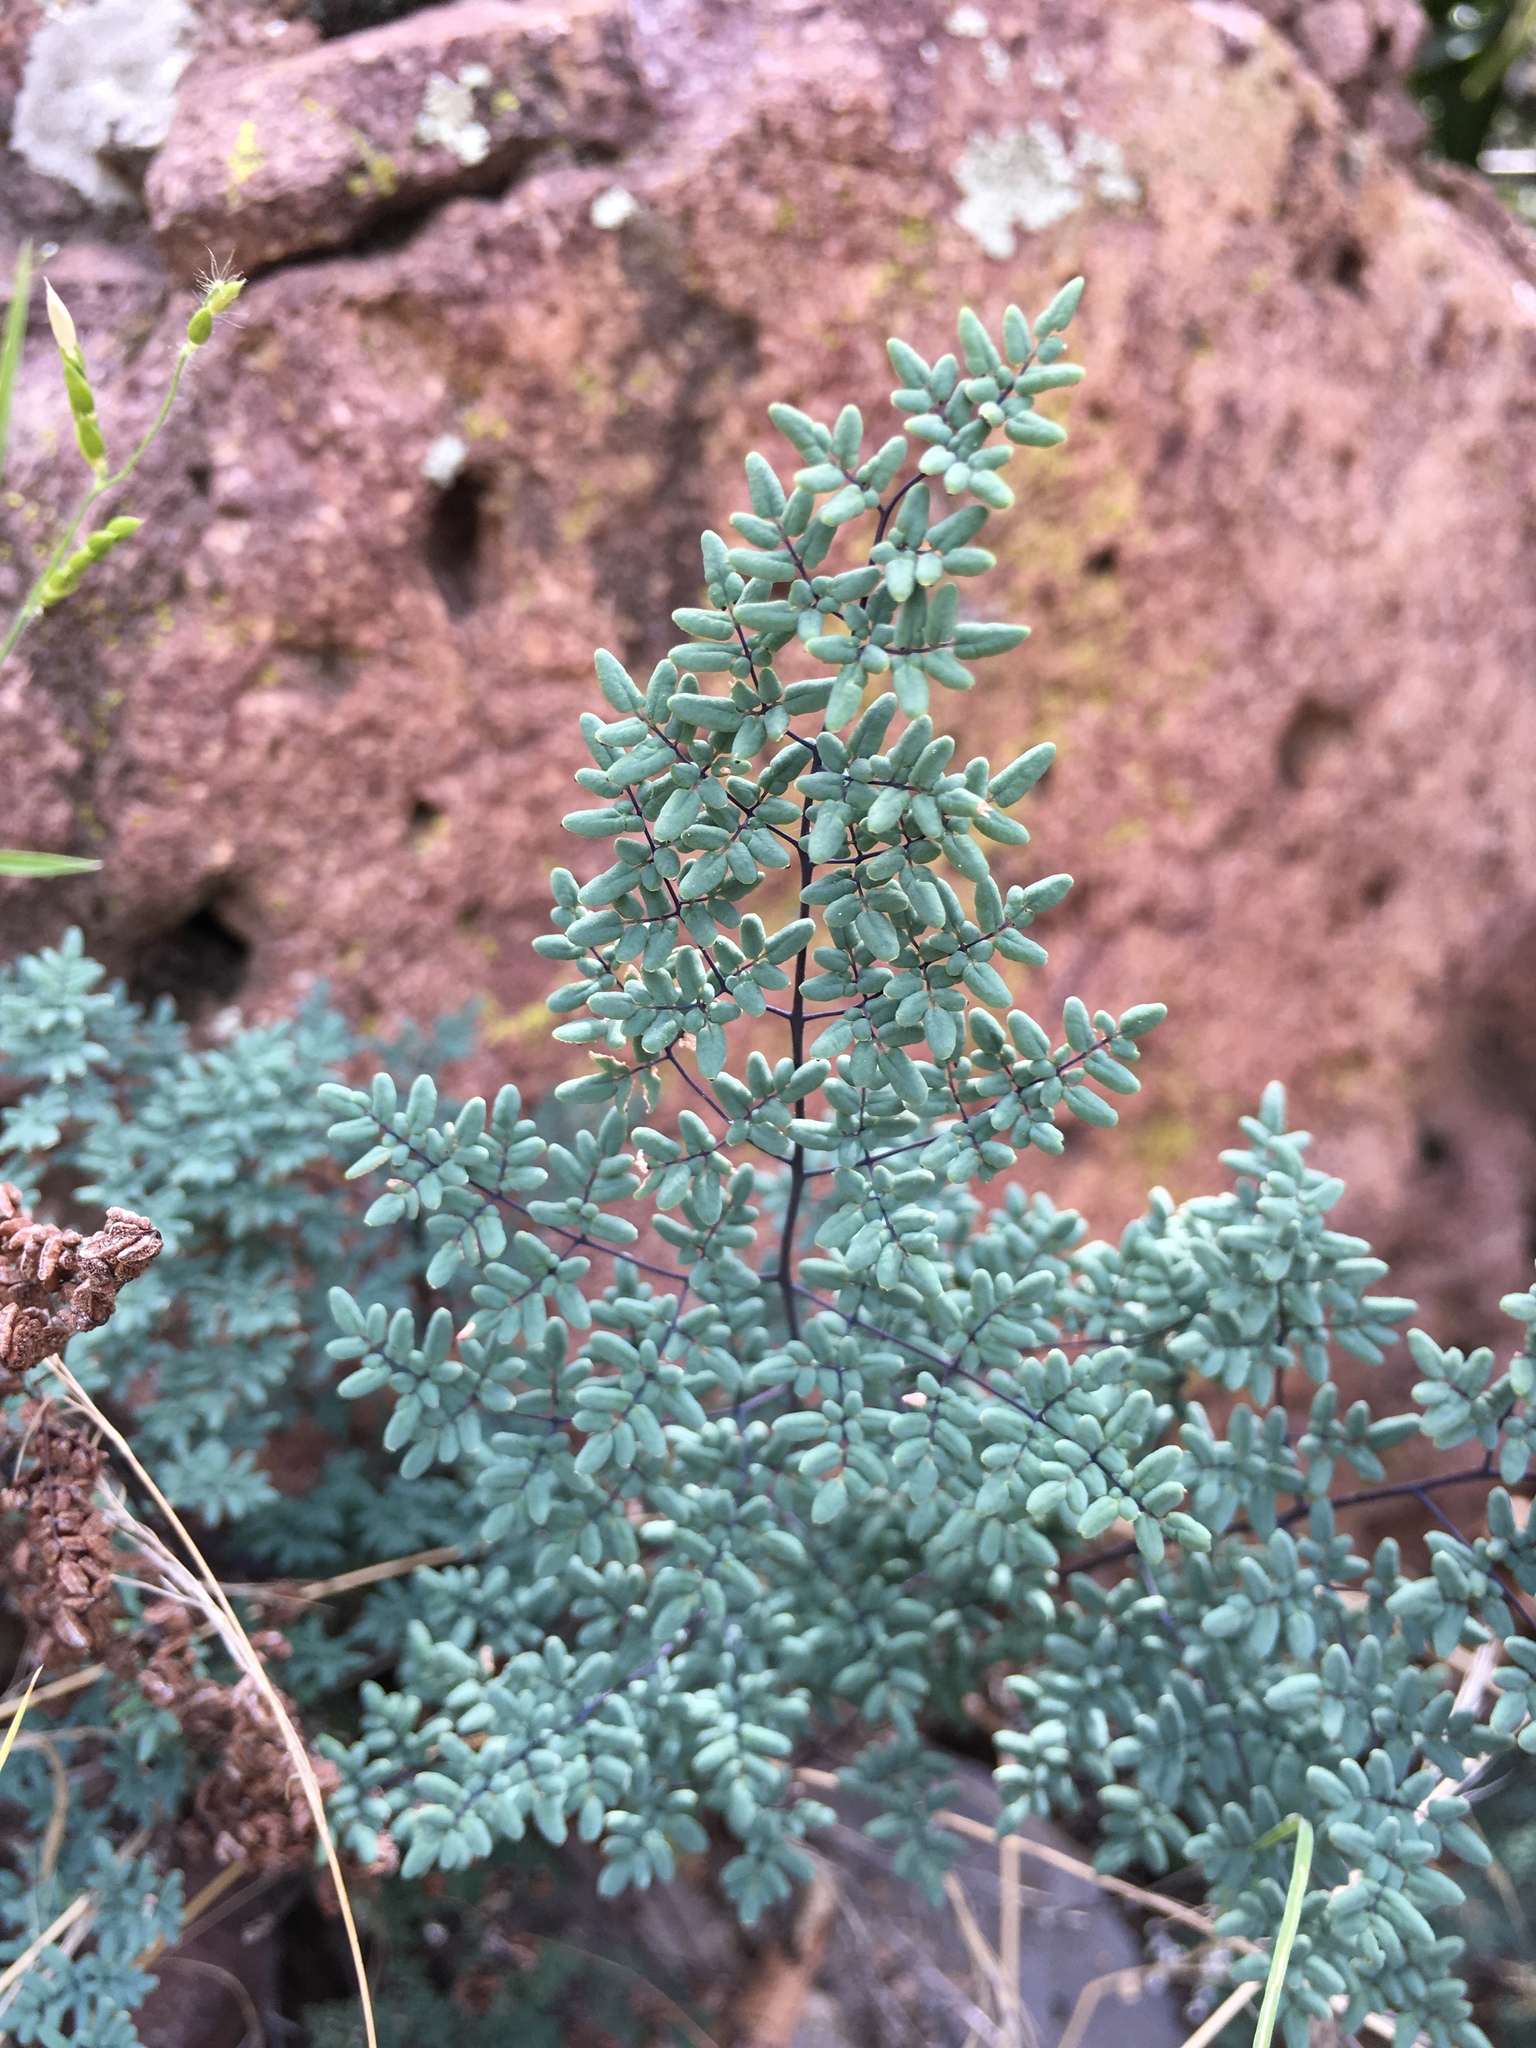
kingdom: Plantae
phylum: Tracheophyta
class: Polypodiopsida
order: Polypodiales
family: Pteridaceae
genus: Argyrochosma
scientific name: Argyrochosma limitanea
